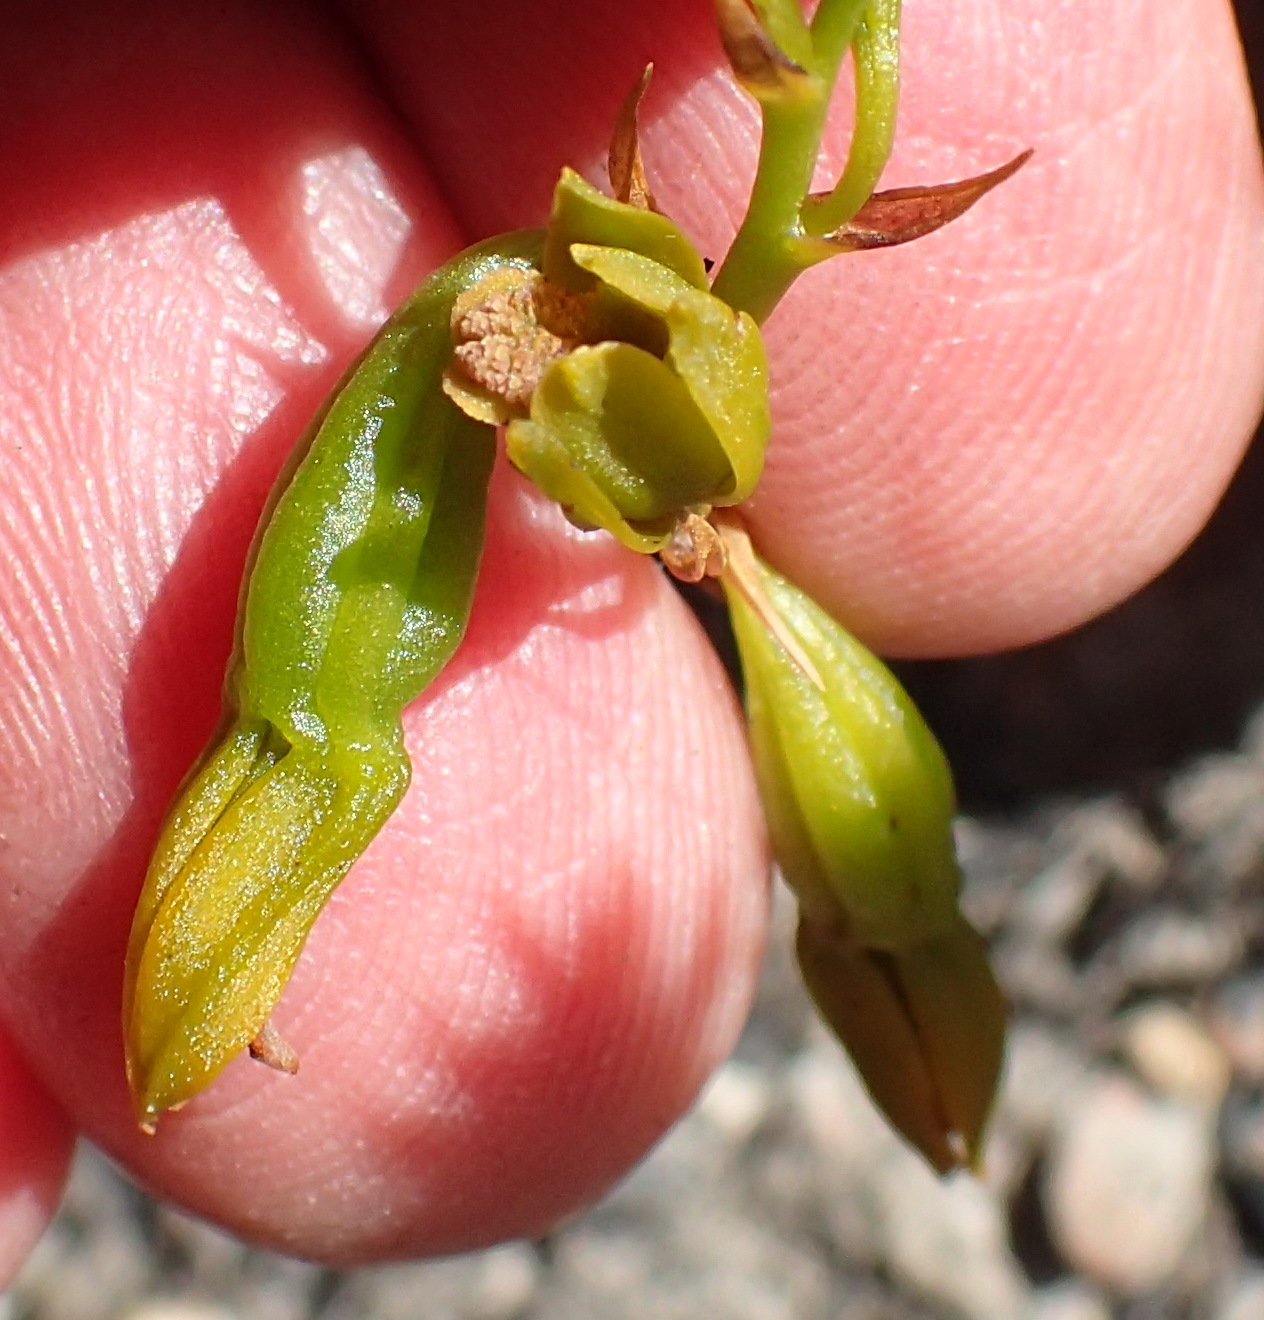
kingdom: Plantae
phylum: Tracheophyta
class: Liliopsida
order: Asparagales
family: Orchidaceae
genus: Eulophia
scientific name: Eulophia ustulata
